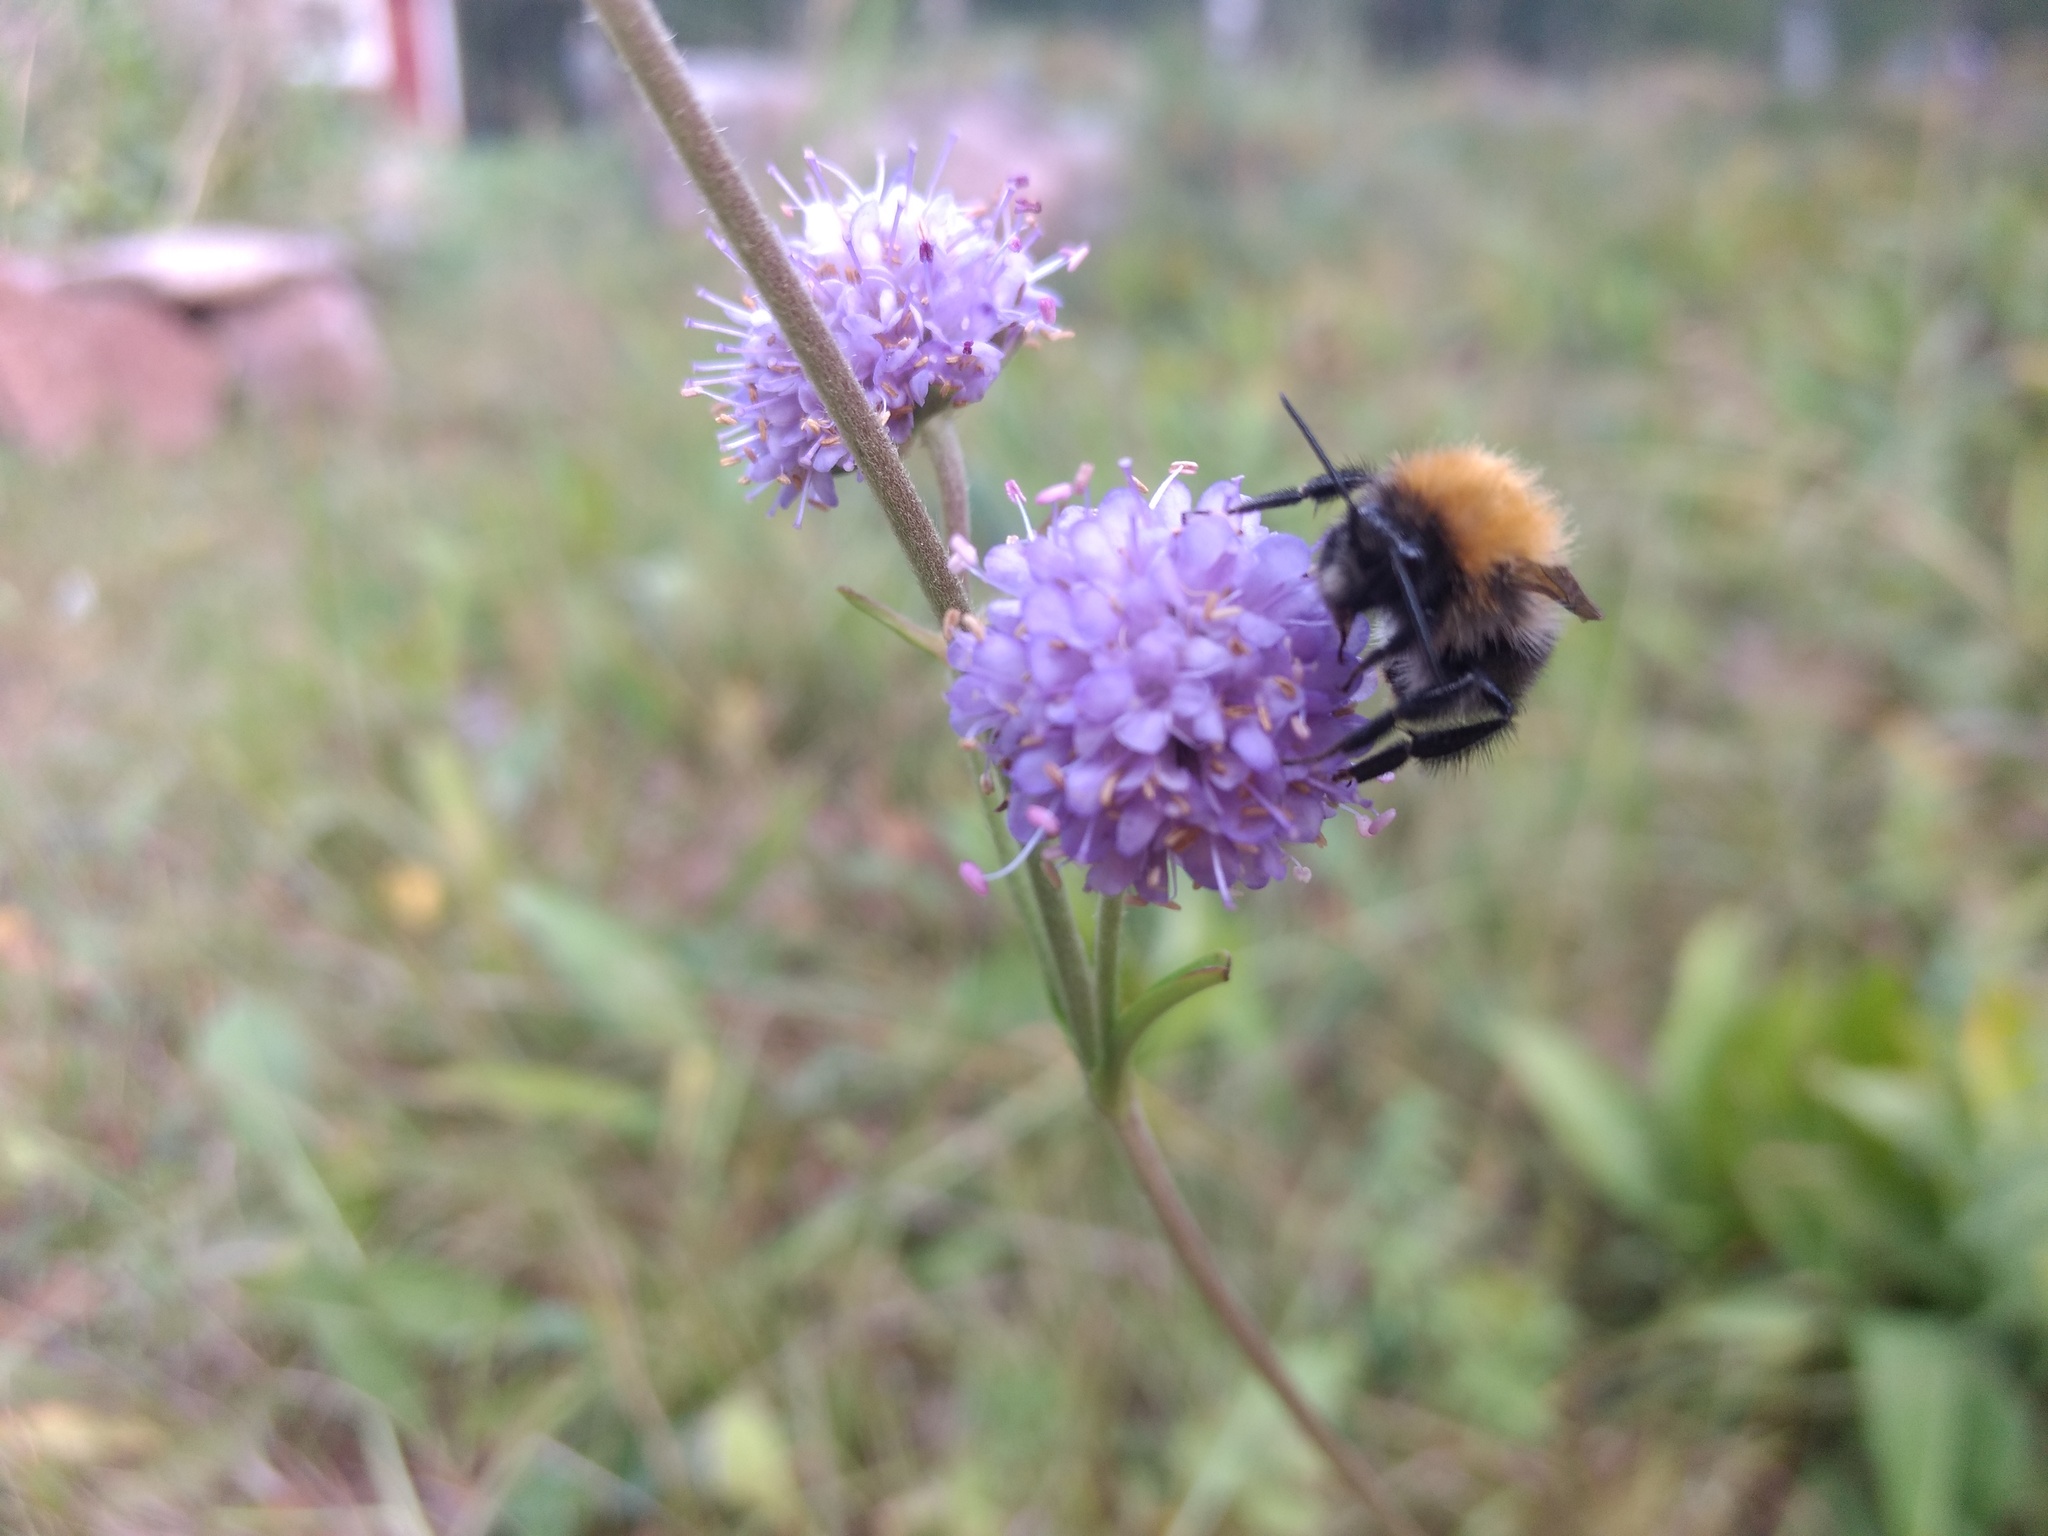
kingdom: Plantae
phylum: Tracheophyta
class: Magnoliopsida
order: Dipsacales
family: Caprifoliaceae
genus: Succisa
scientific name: Succisa pratensis
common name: Devil's-bit
